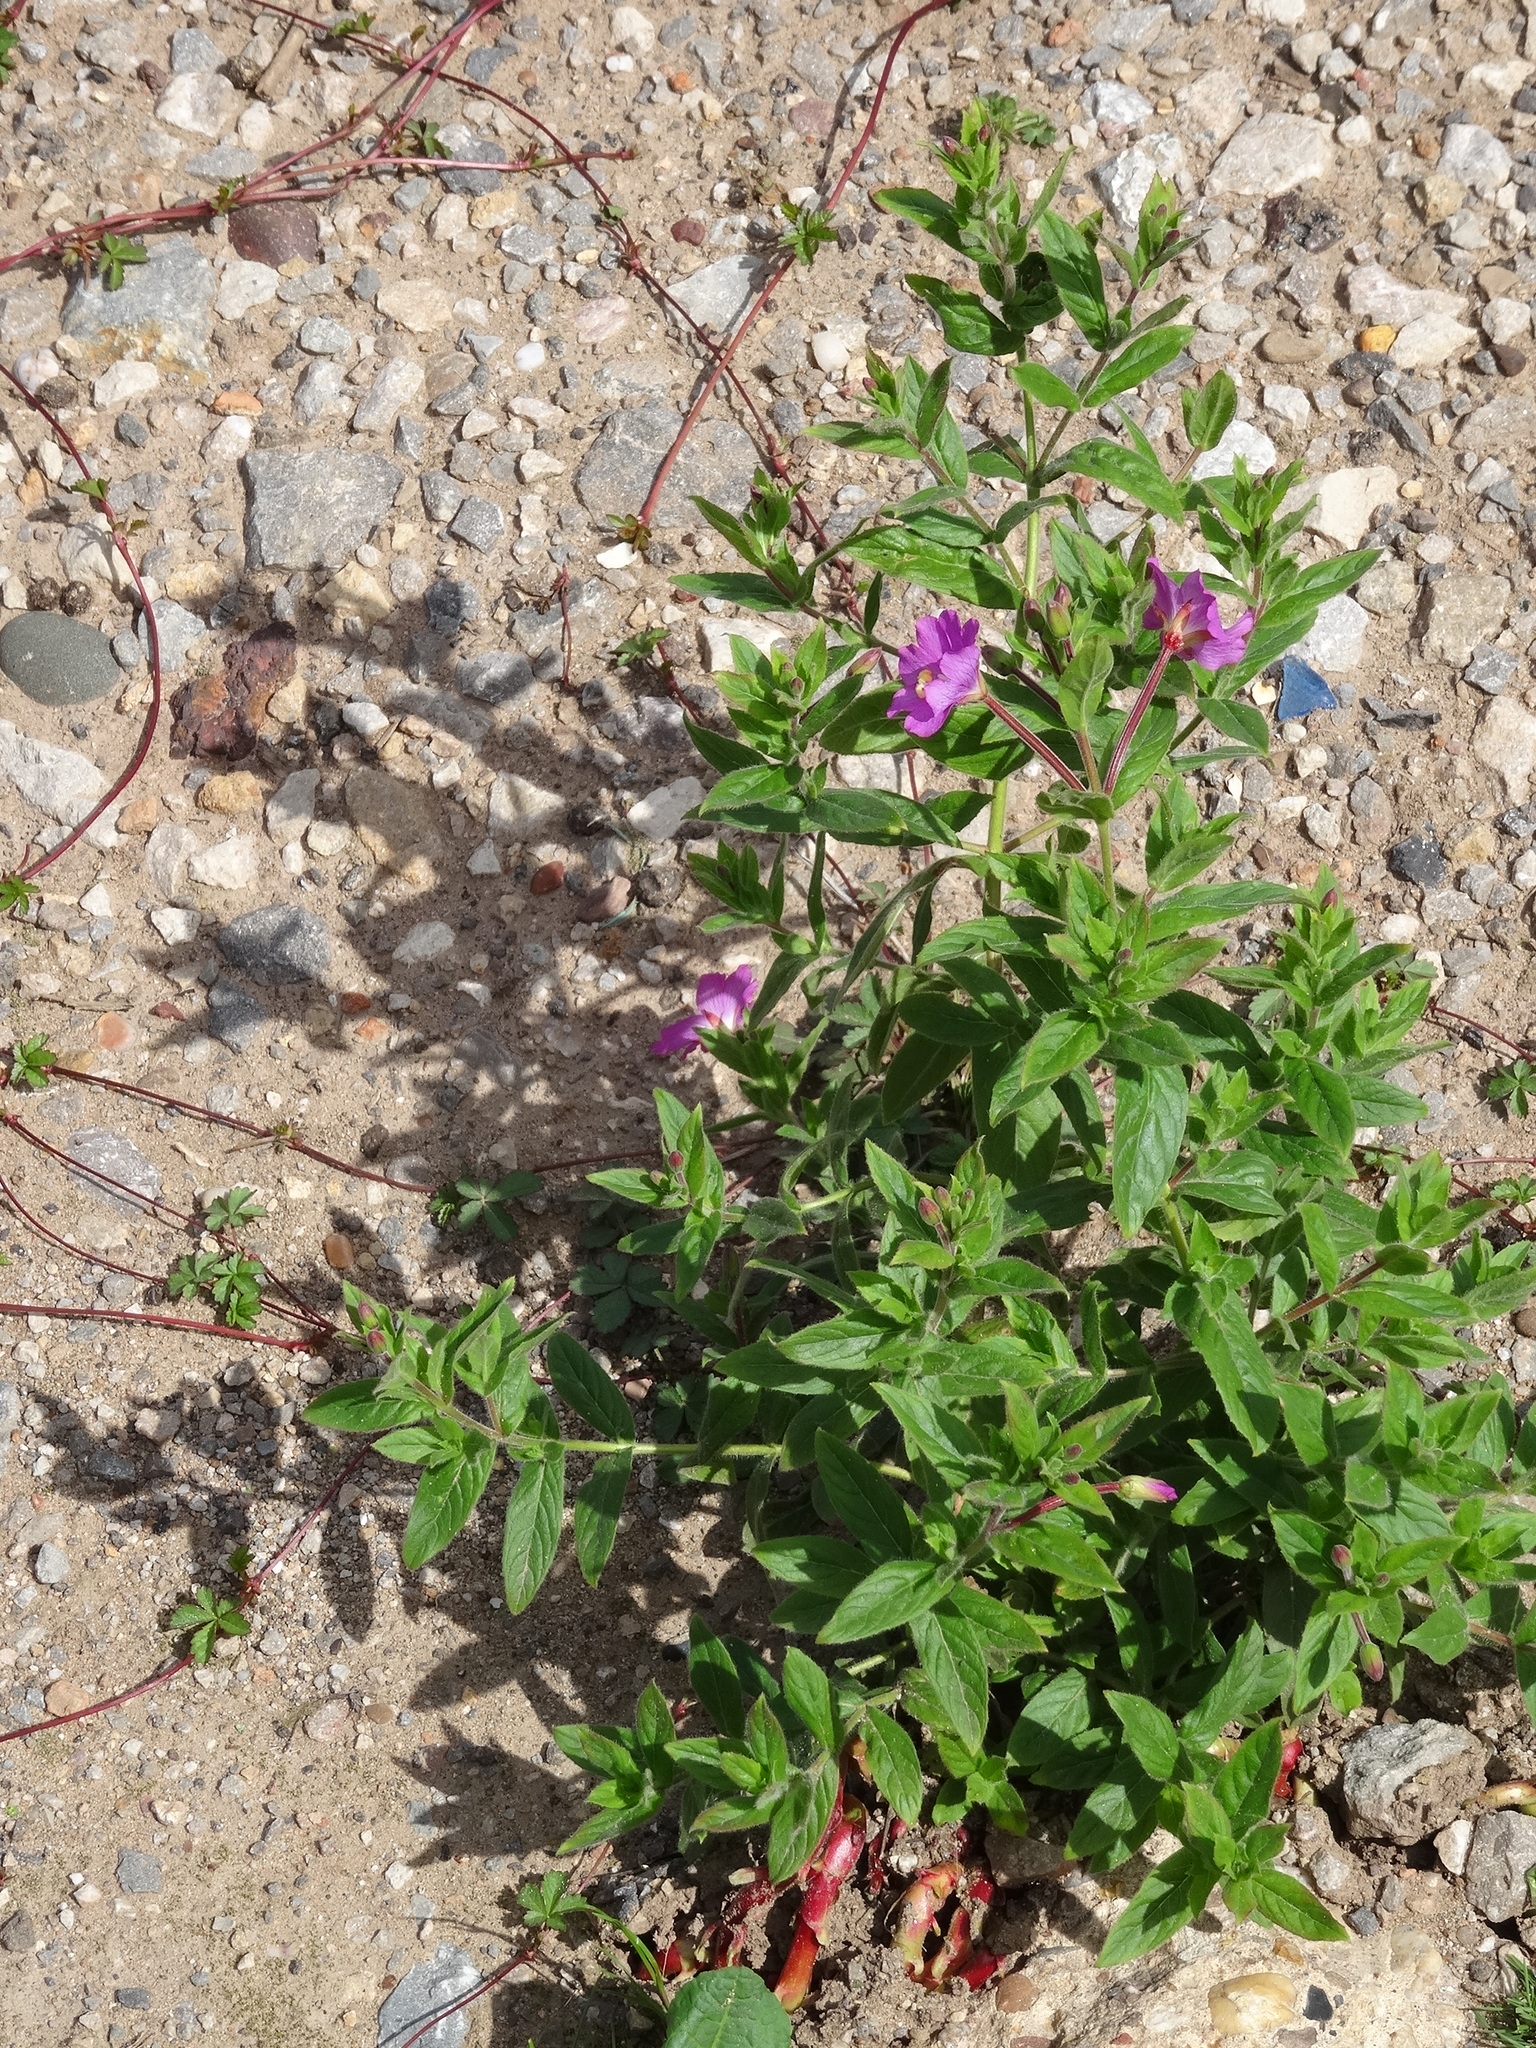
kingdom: Plantae
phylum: Tracheophyta
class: Magnoliopsida
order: Myrtales
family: Onagraceae
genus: Epilobium
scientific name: Epilobium hirsutum
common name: Great willowherb
